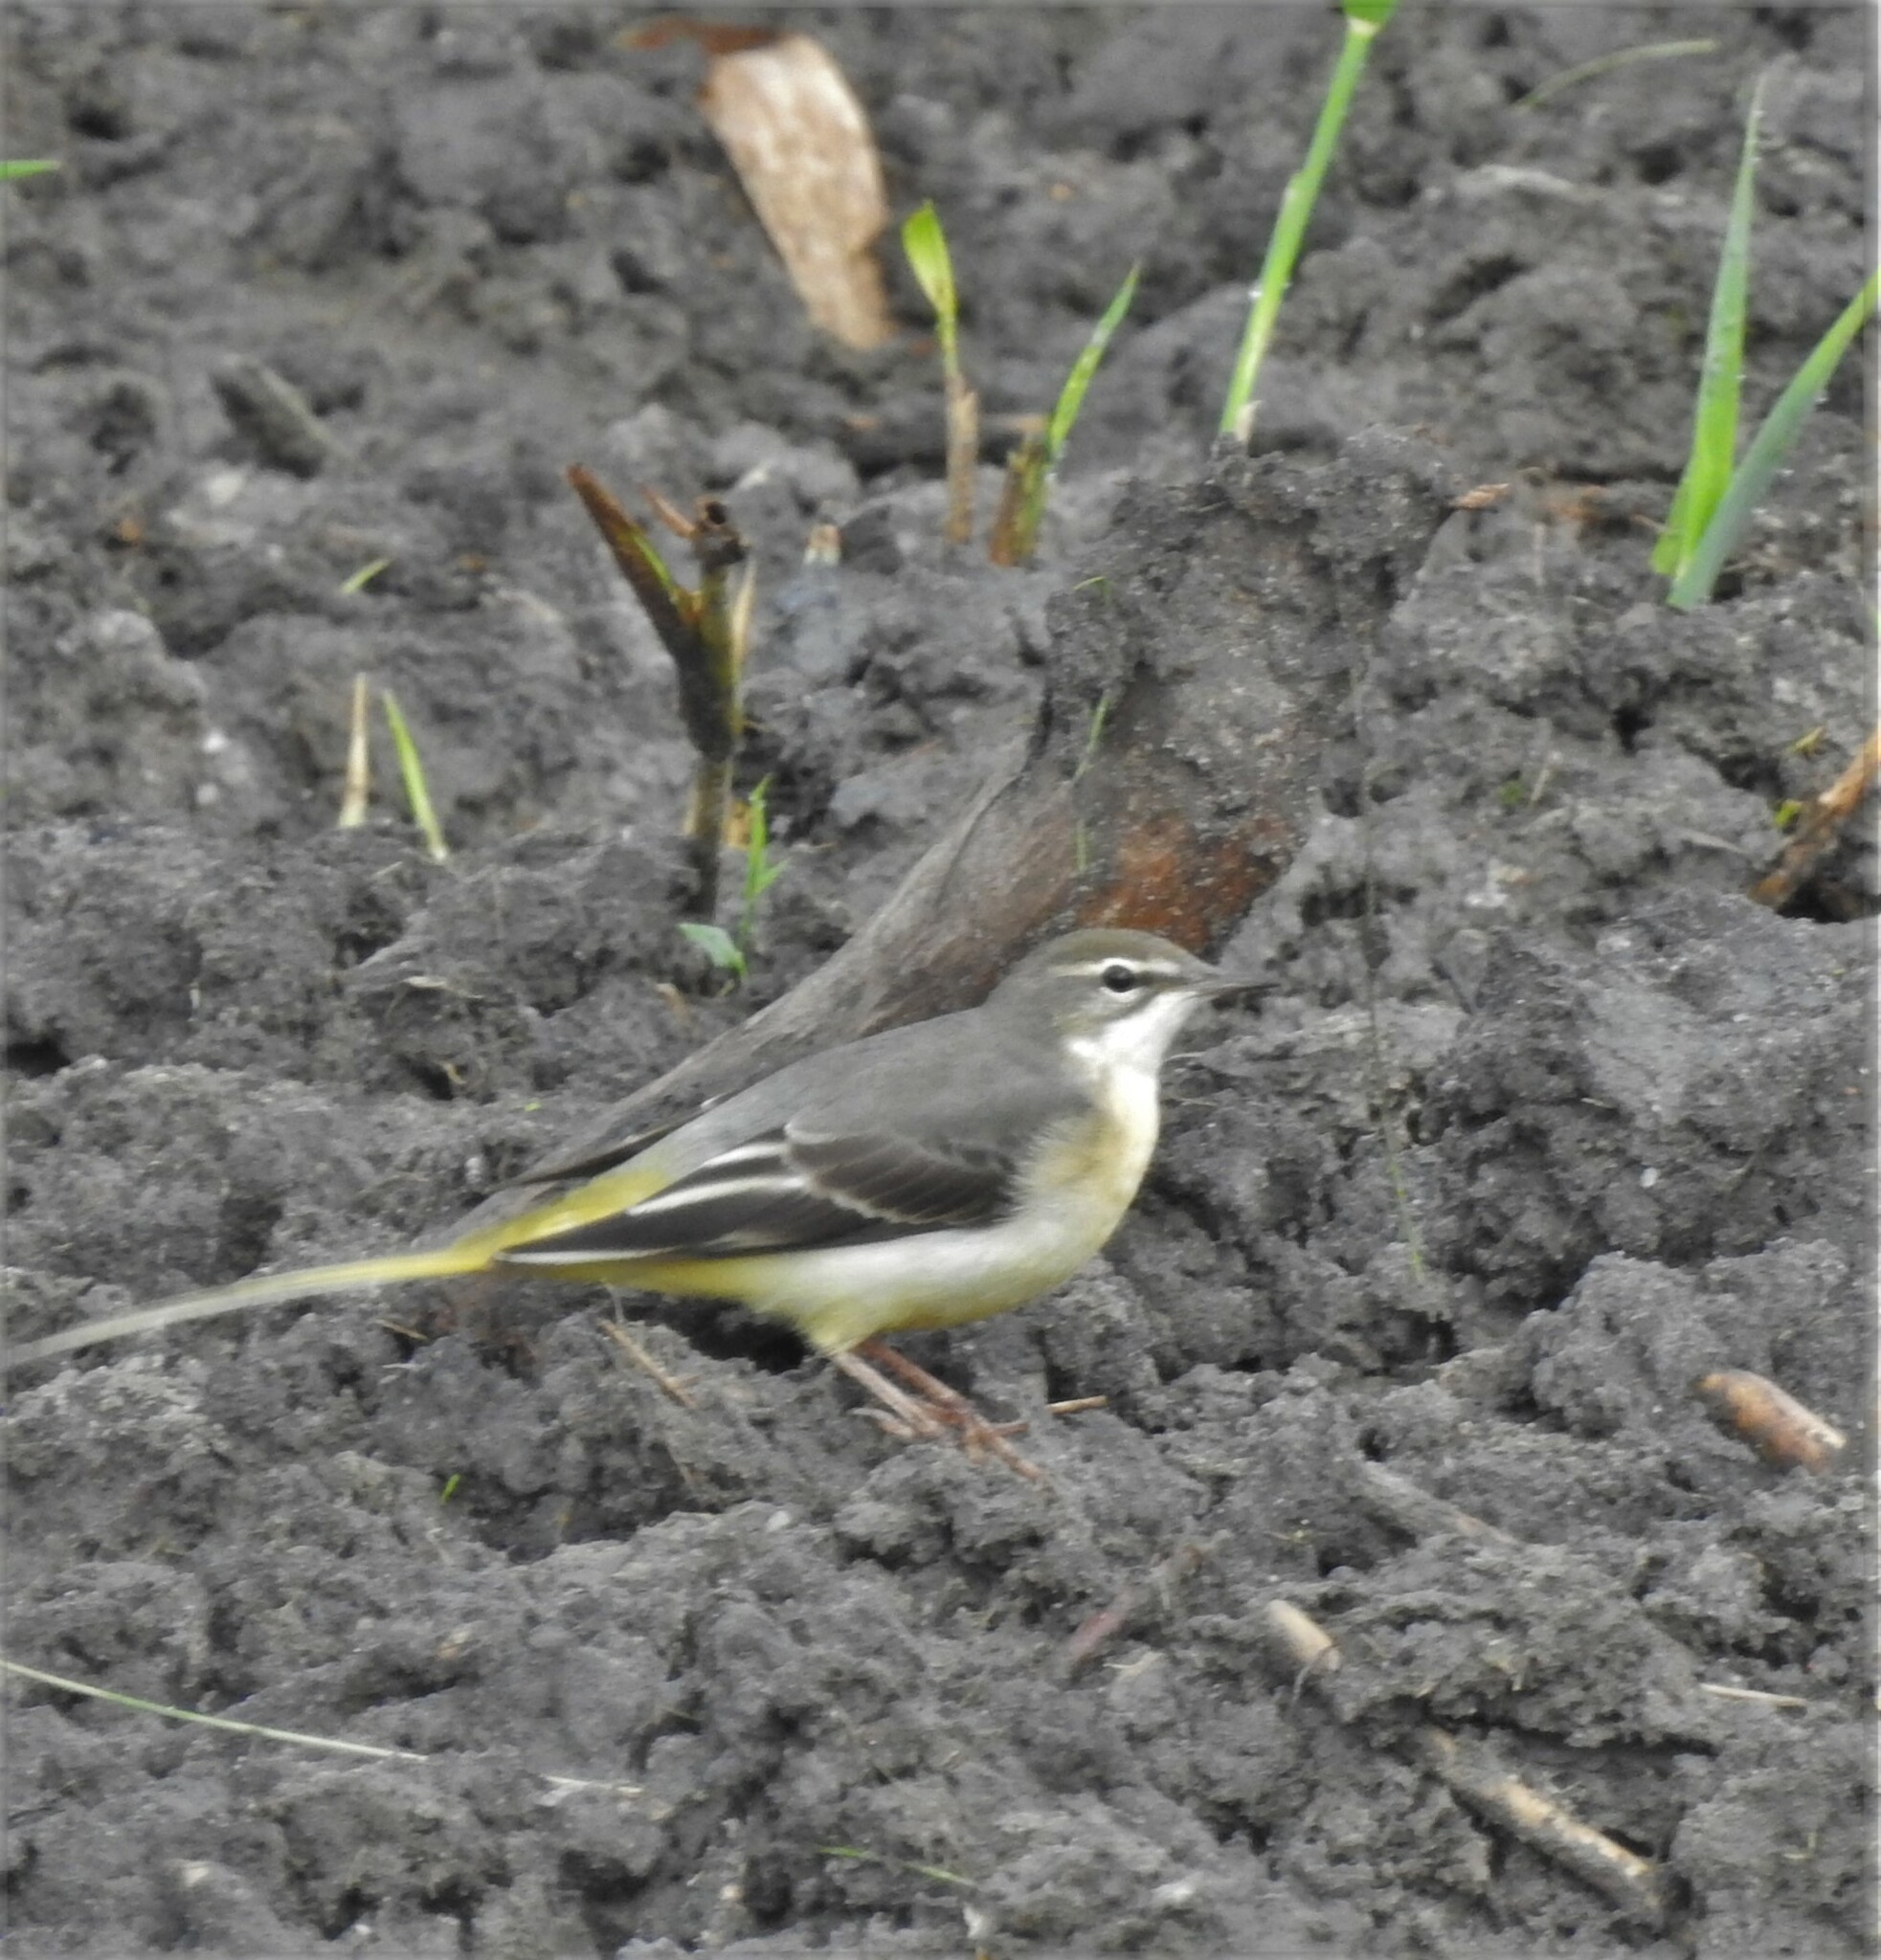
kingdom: Animalia
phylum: Chordata
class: Aves
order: Passeriformes
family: Motacillidae
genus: Motacilla
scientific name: Motacilla cinerea
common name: Grey wagtail
